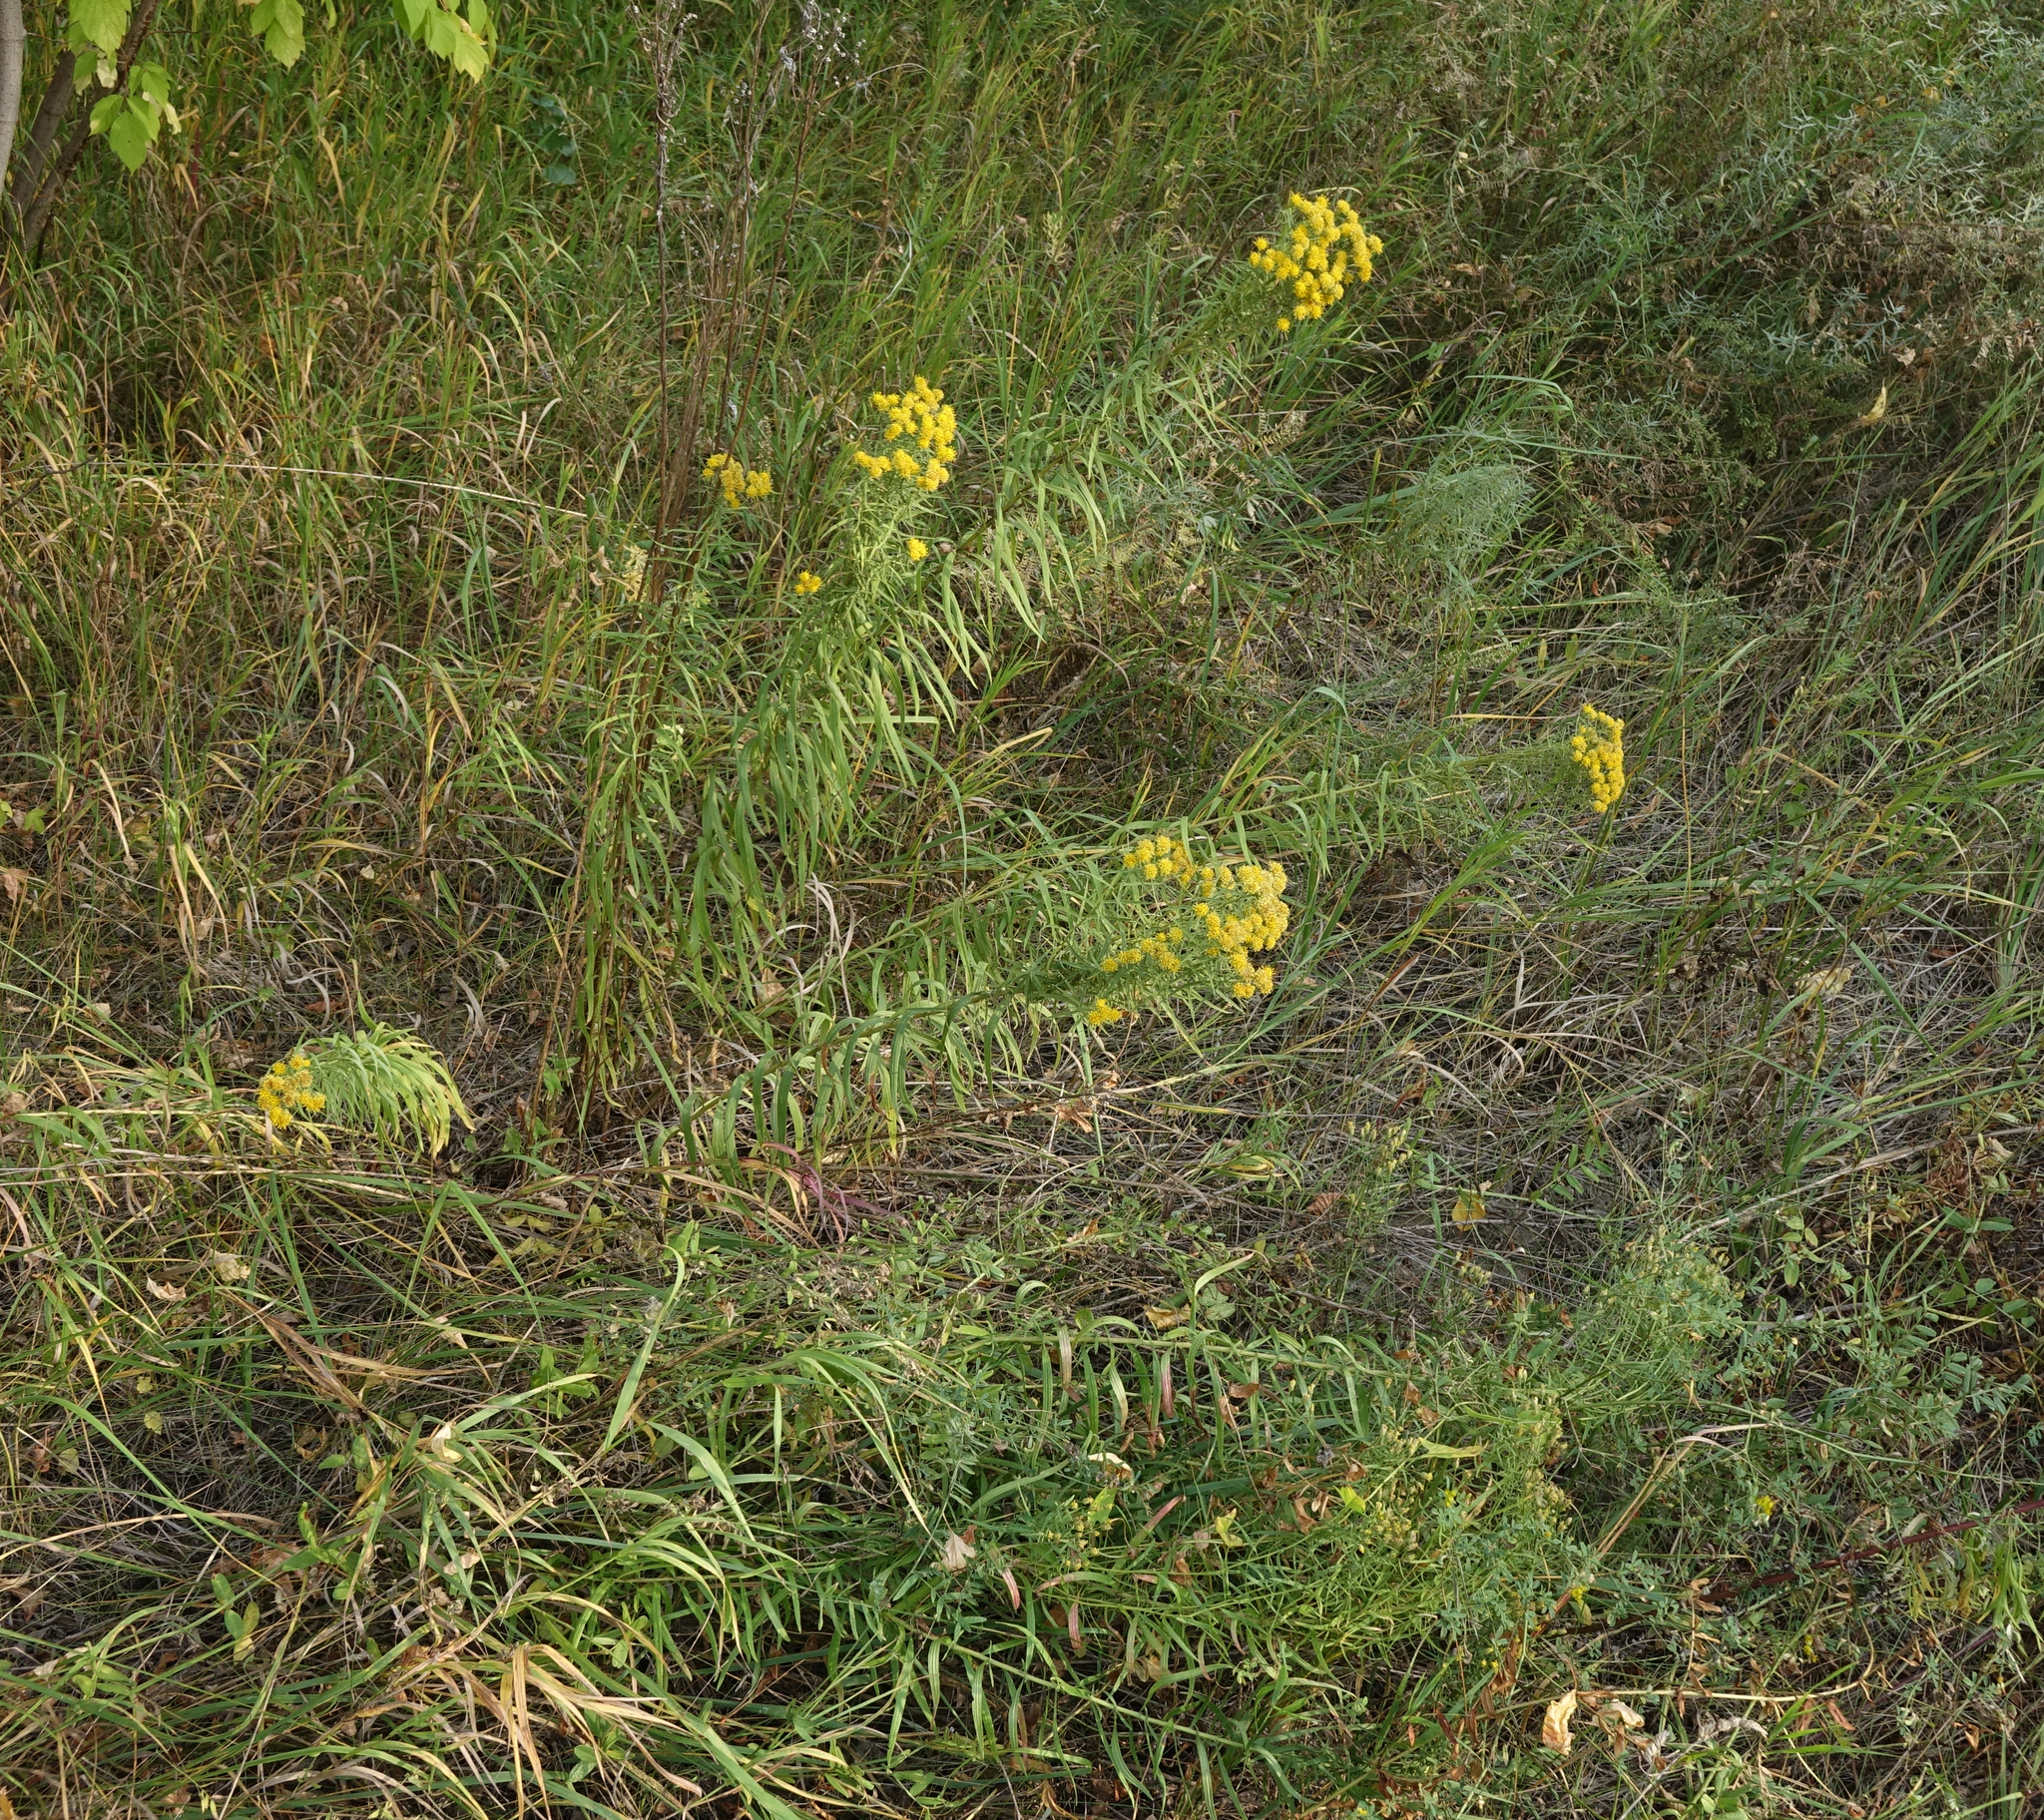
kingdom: Plantae
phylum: Tracheophyta
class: Magnoliopsida
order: Asterales
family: Asteraceae
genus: Galatella
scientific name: Galatella biflora
